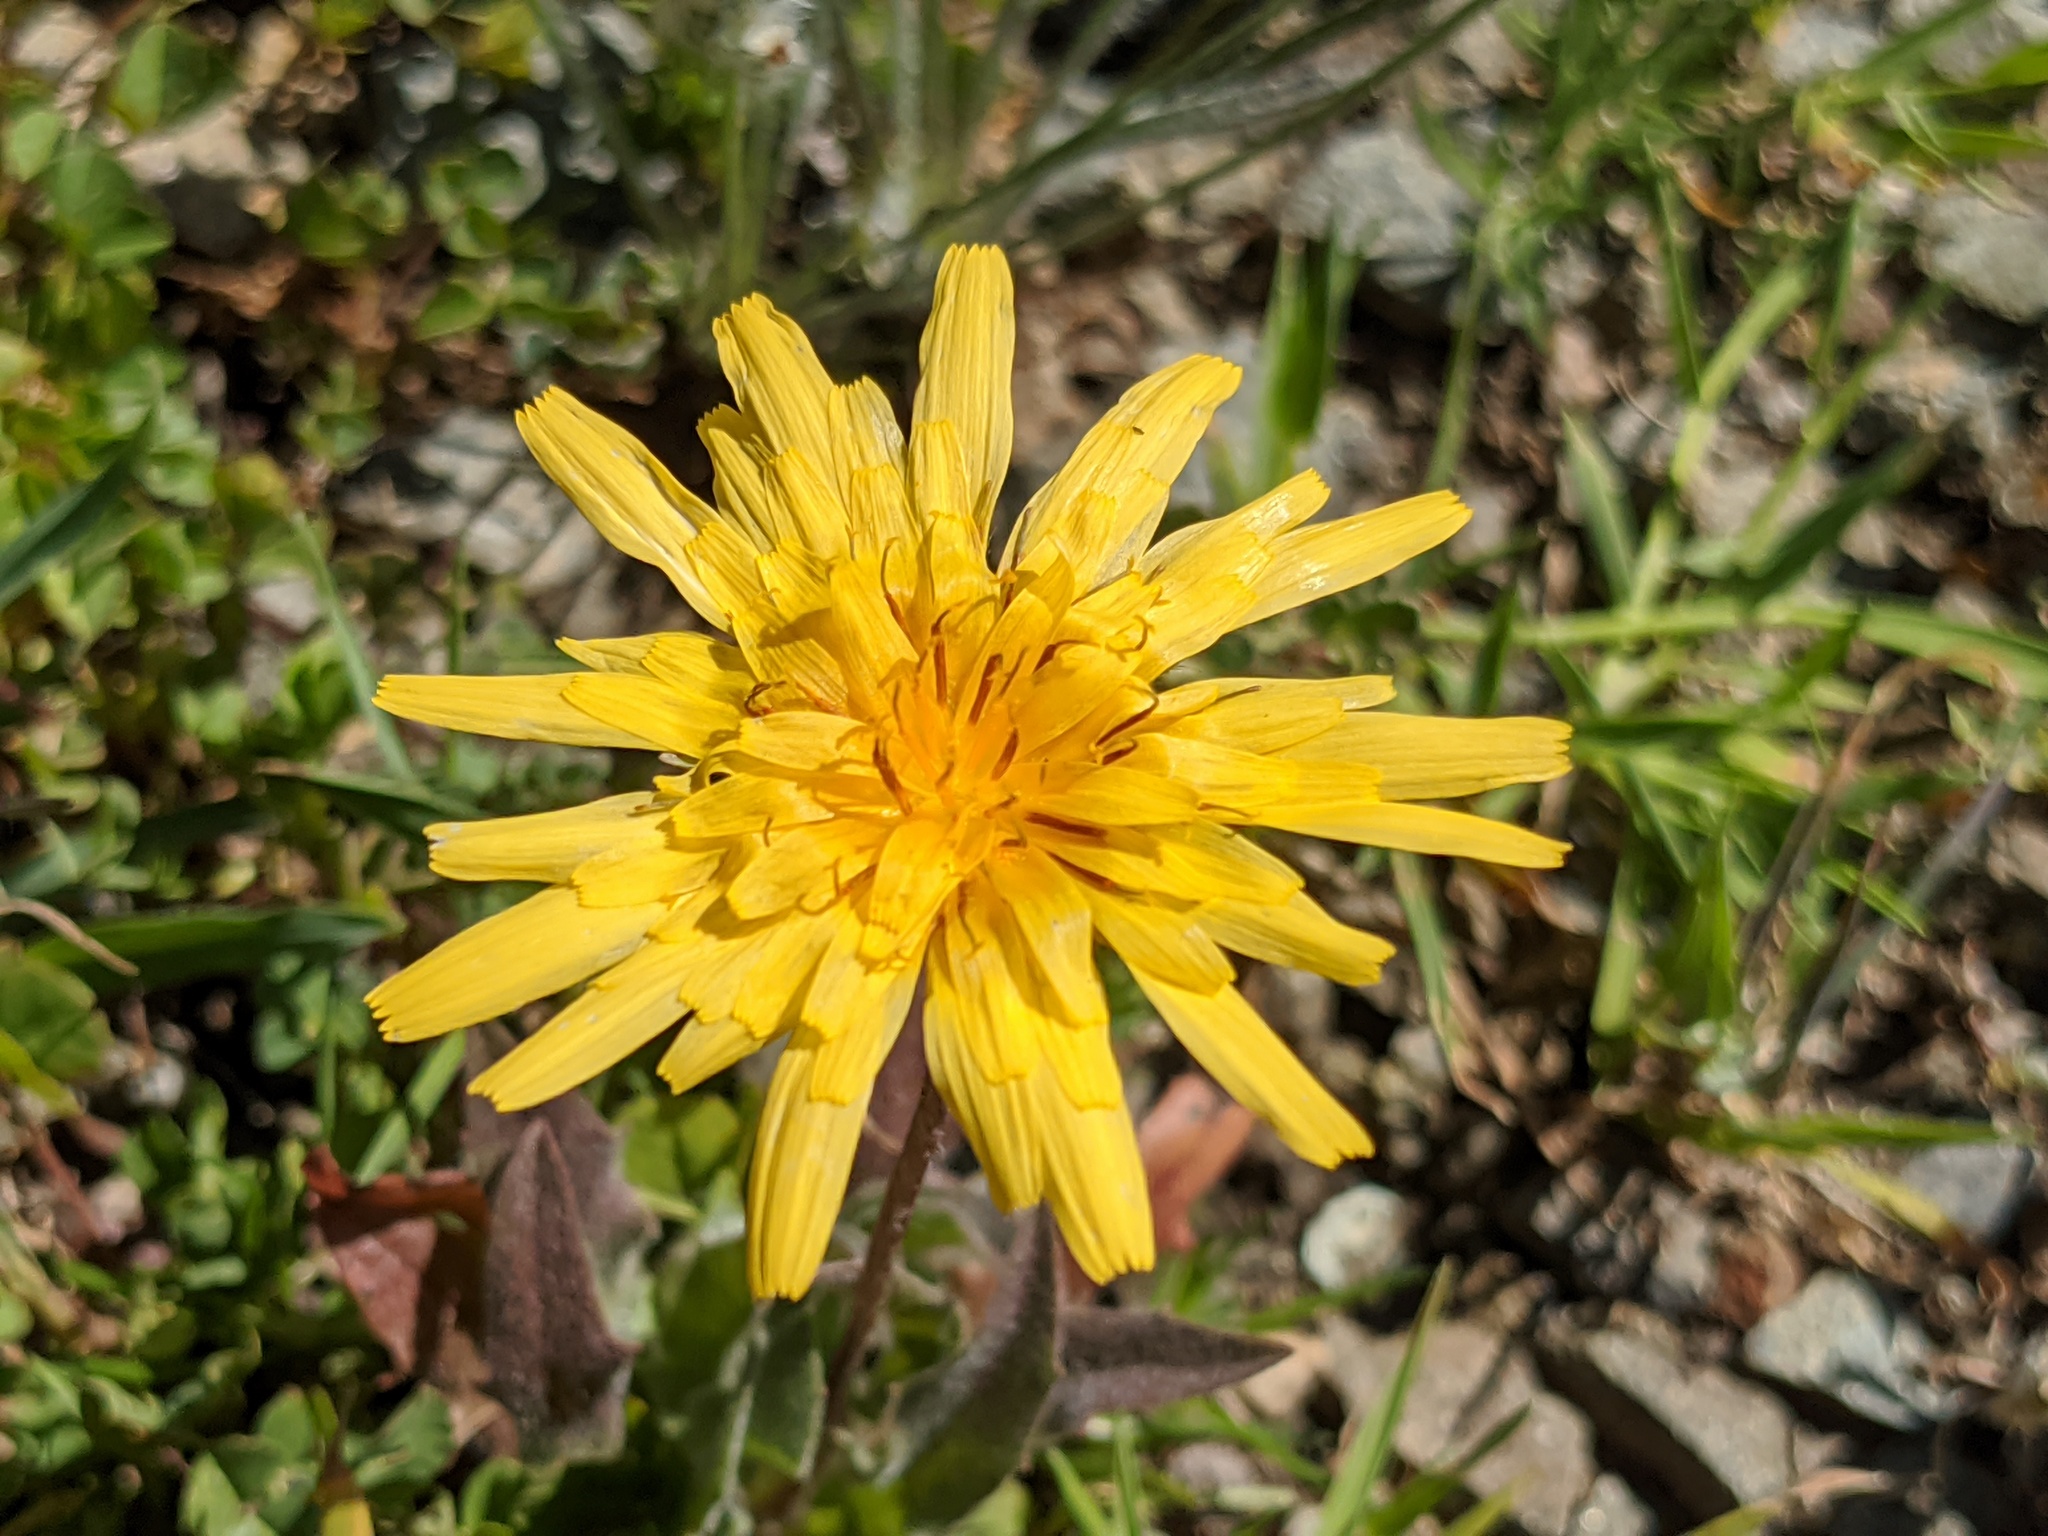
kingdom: Plantae
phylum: Tracheophyta
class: Magnoliopsida
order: Asterales
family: Asteraceae
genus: Agoseris
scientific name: Agoseris heterophylla
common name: Annual agoseris
